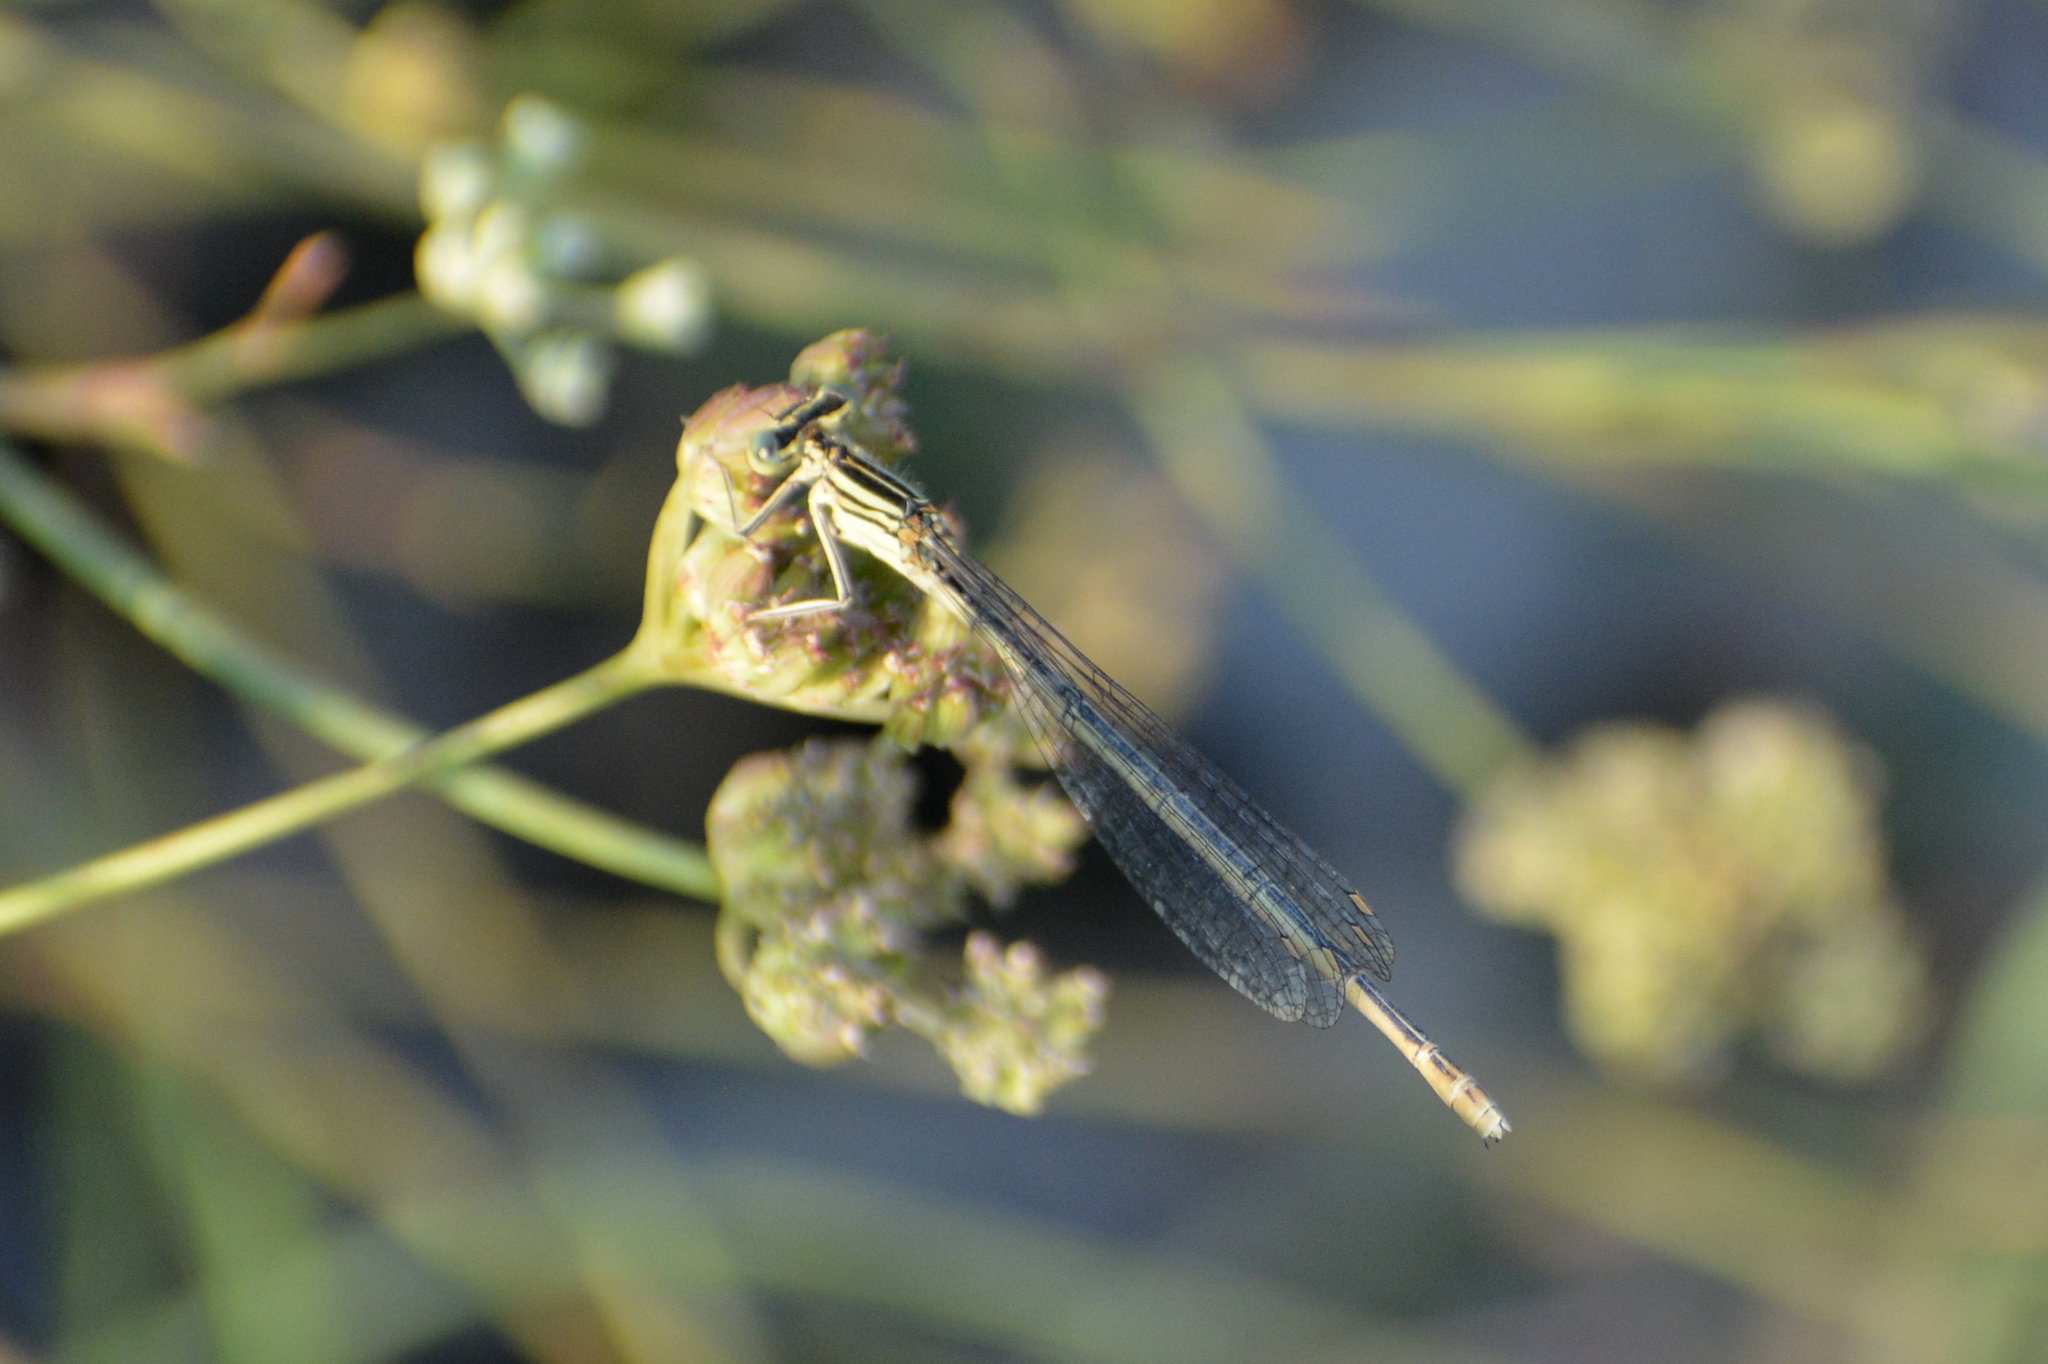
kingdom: Animalia
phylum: Arthropoda
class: Insecta
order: Odonata
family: Platycnemididae
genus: Platycnemis
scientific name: Platycnemis pennipes
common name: White-legged damselfly
